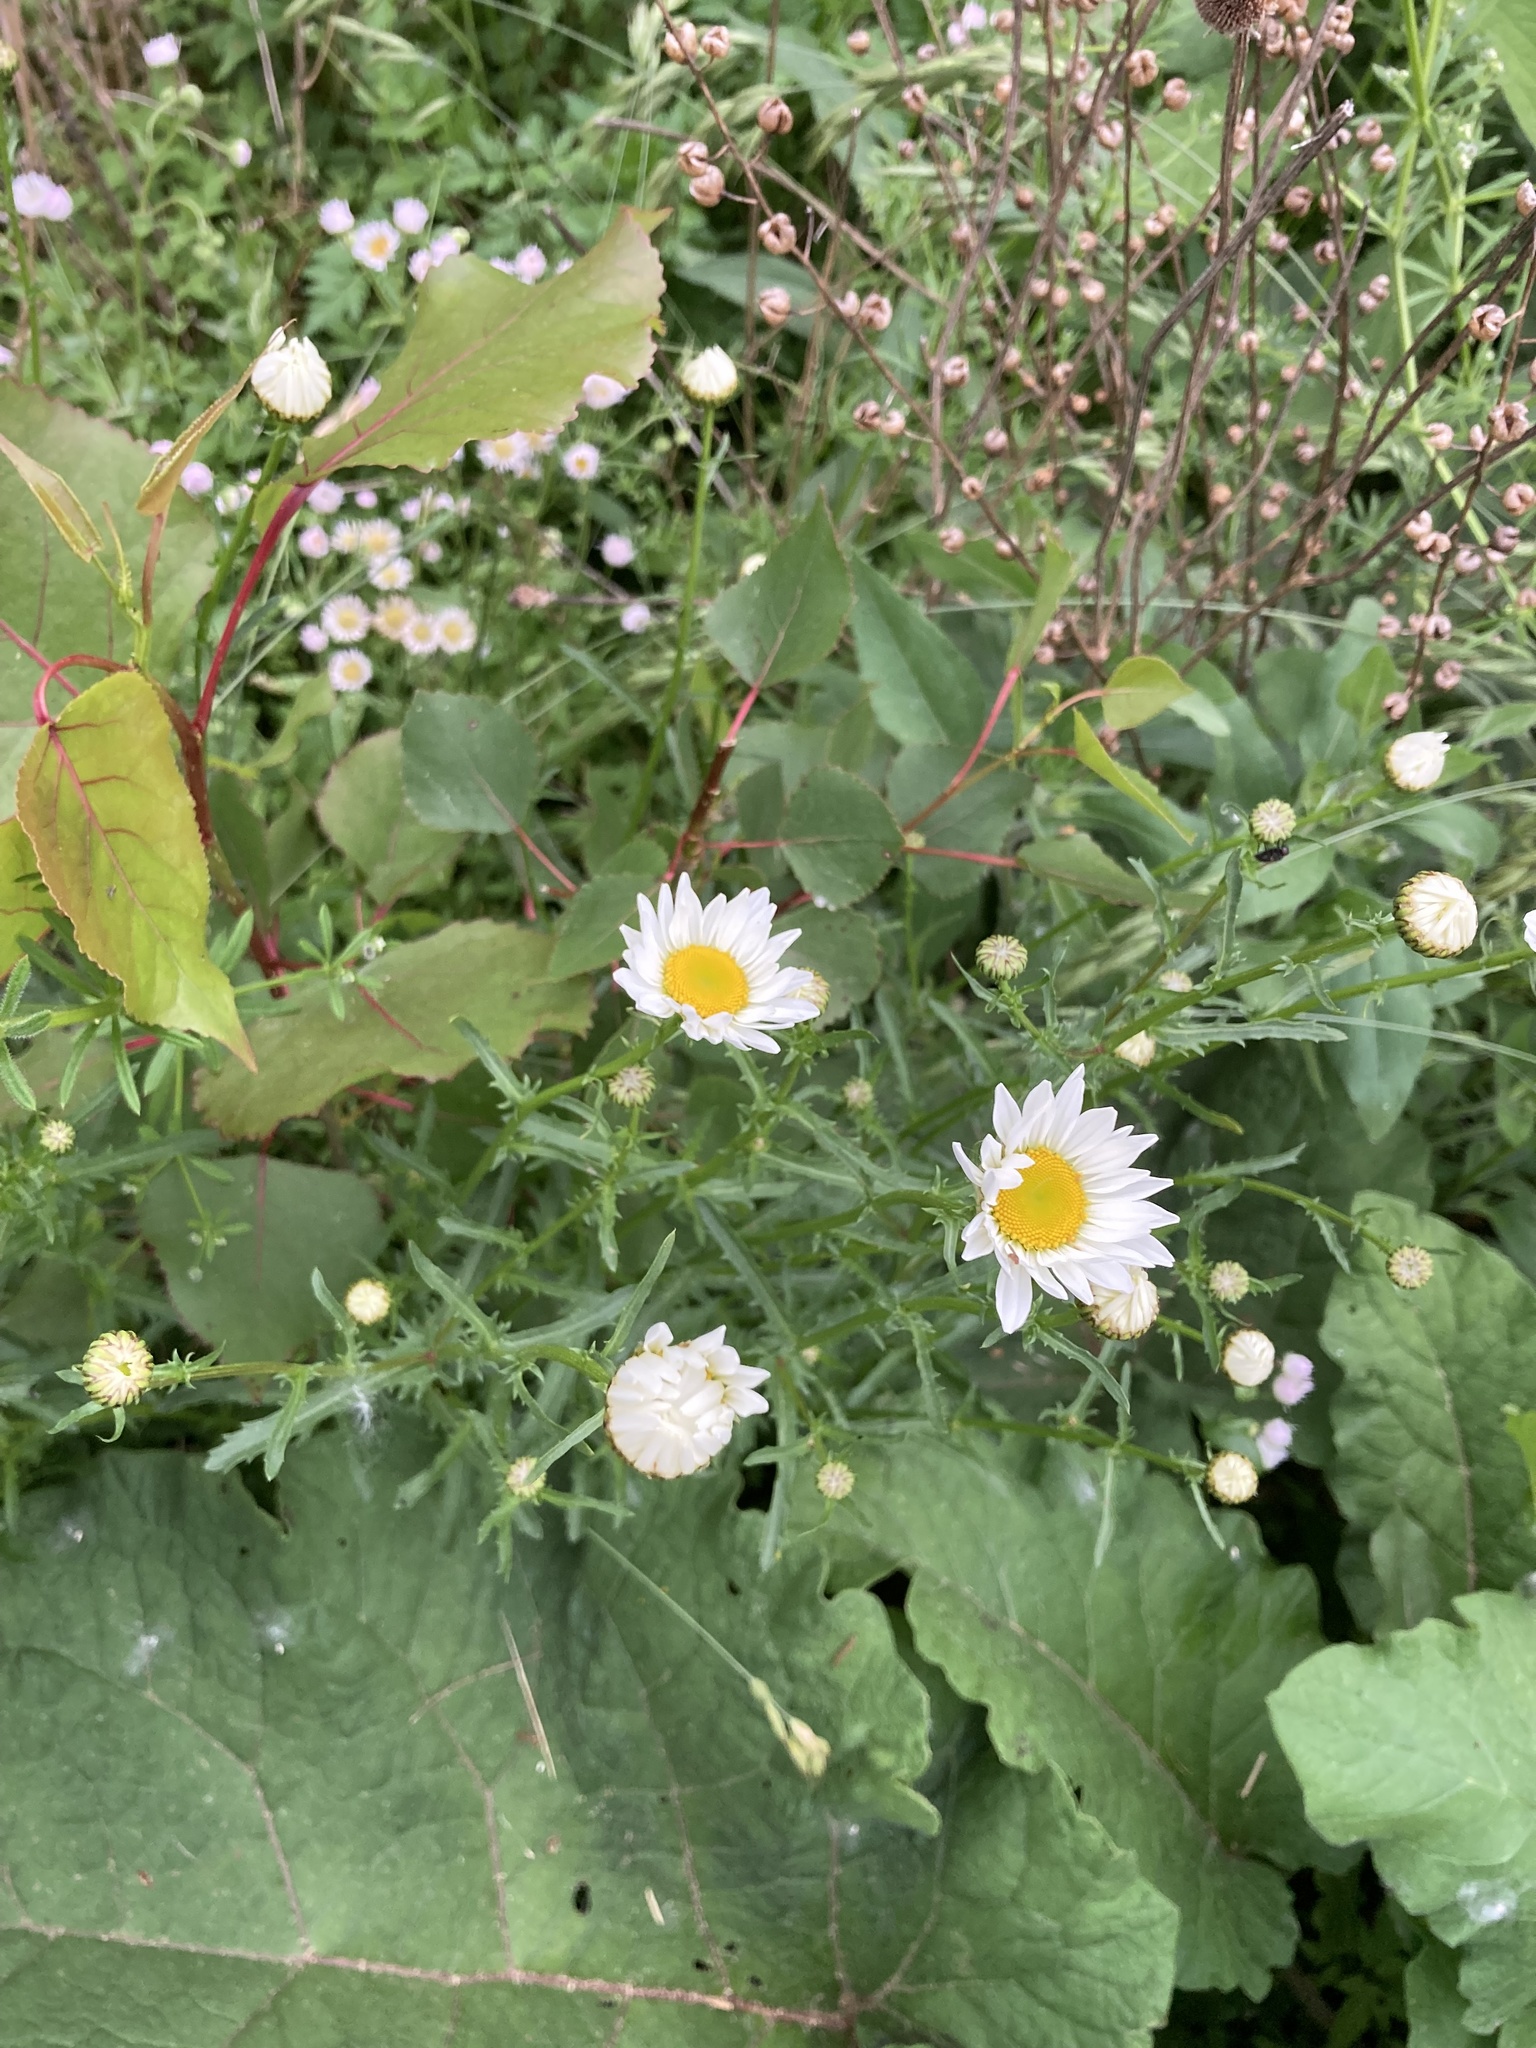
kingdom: Plantae
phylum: Tracheophyta
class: Magnoliopsida
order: Asterales
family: Asteraceae
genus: Leucanthemum
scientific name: Leucanthemum vulgare
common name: Oxeye daisy
